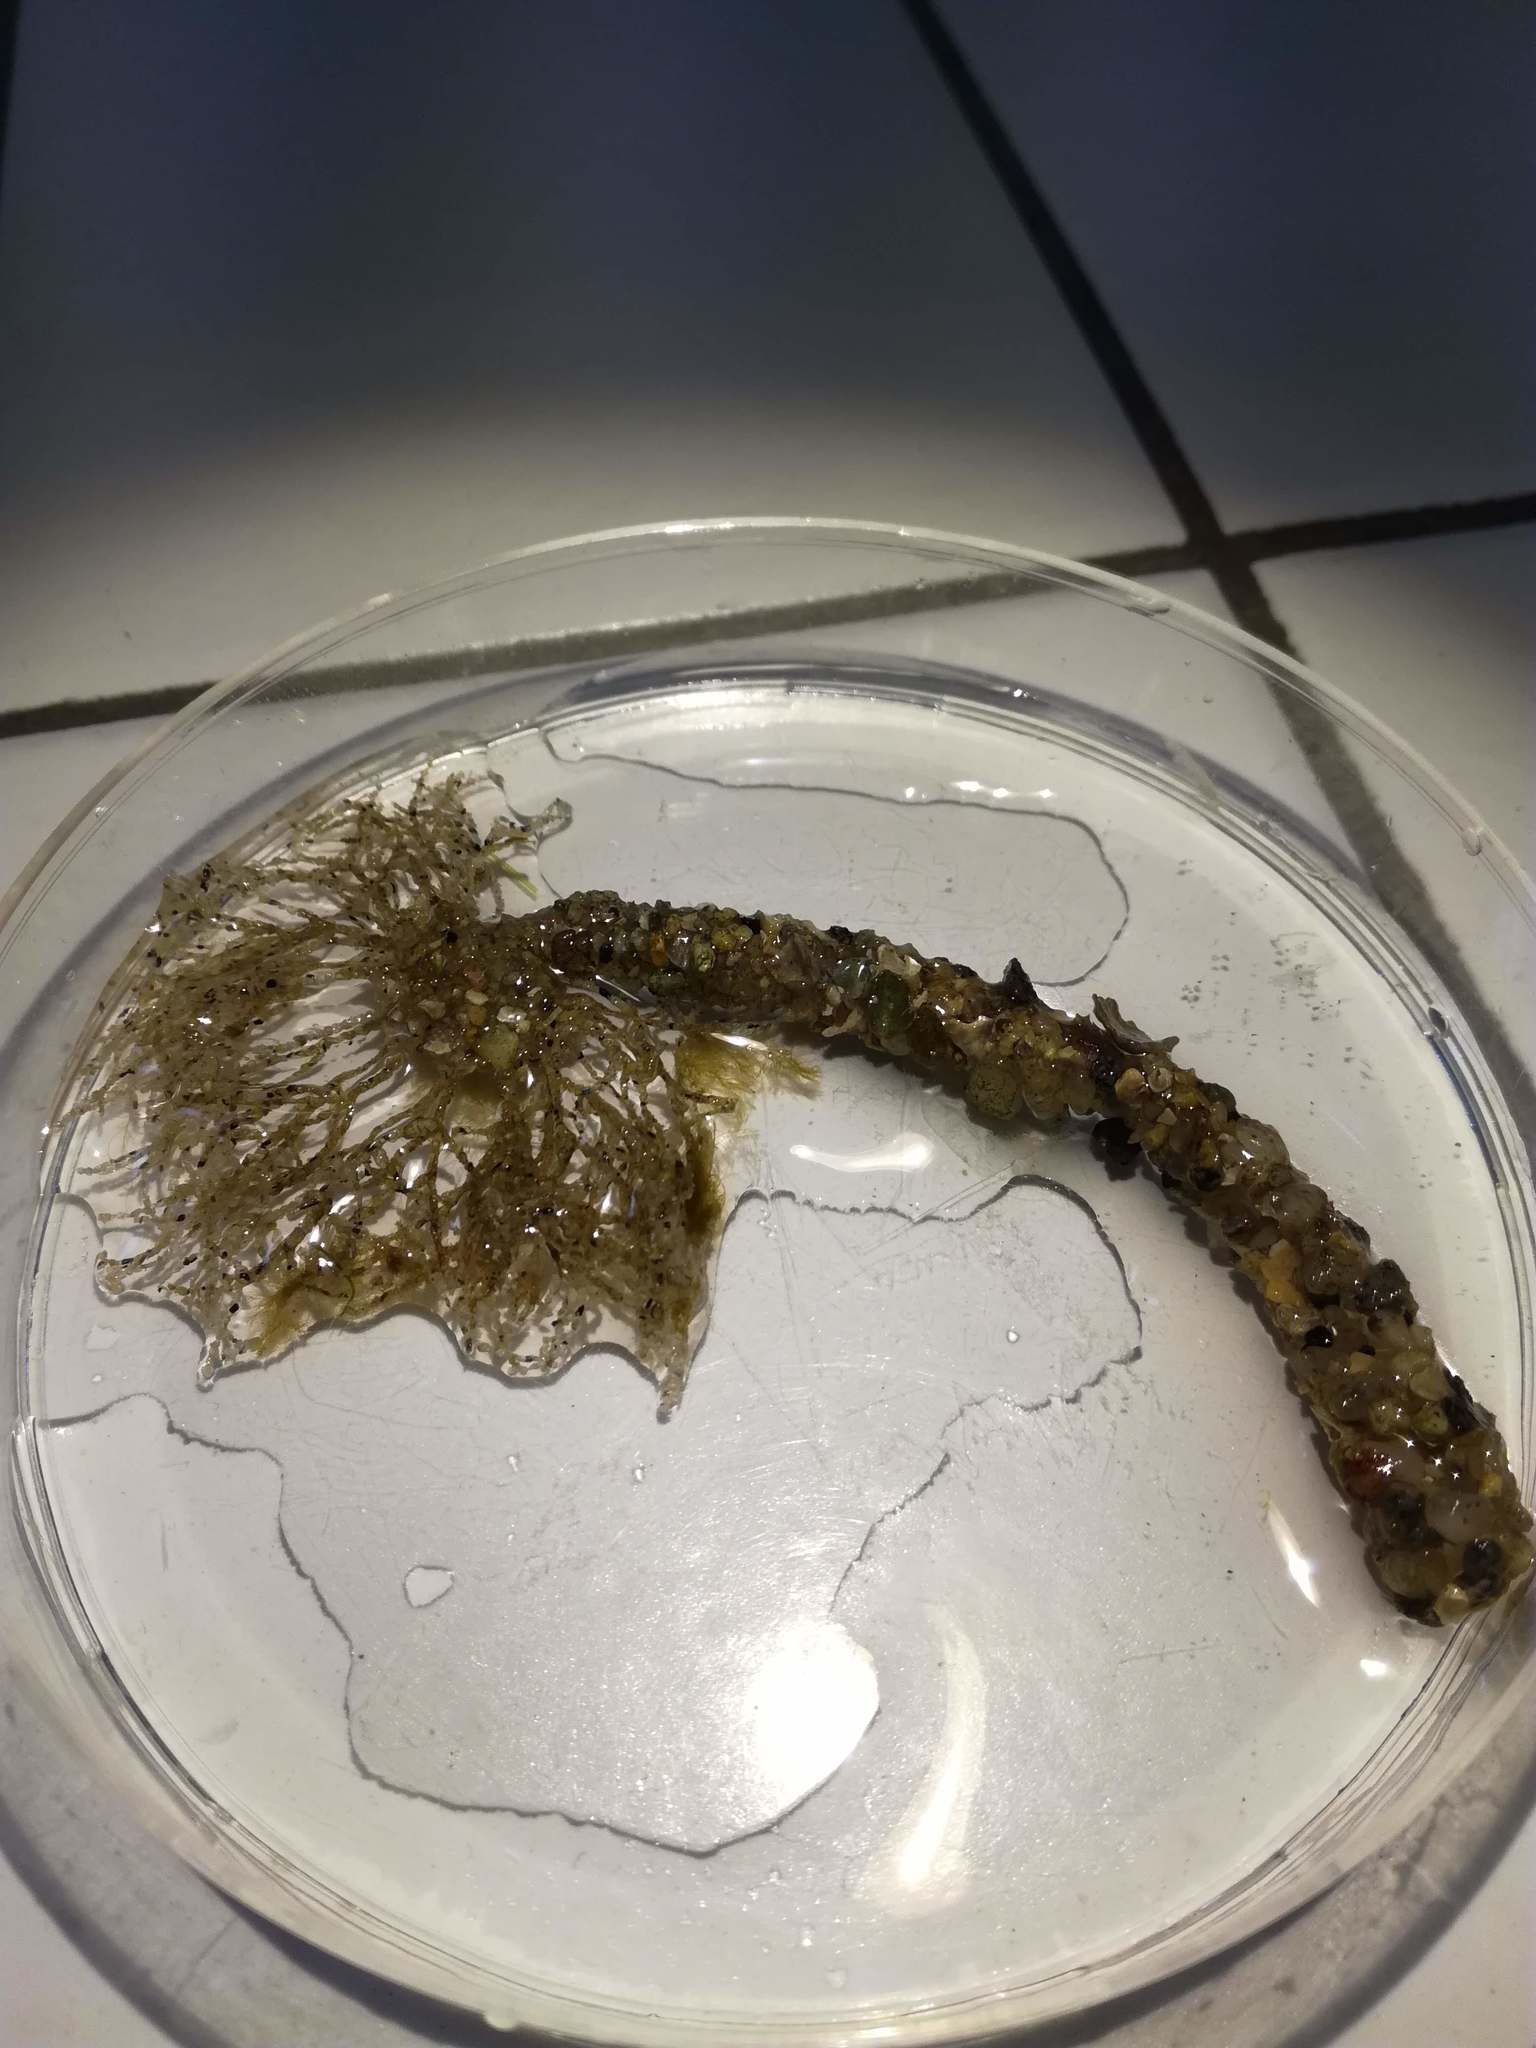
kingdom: Animalia
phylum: Annelida
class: Polychaeta
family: Terebellidae
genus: Lanice
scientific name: Lanice conchilega
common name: Sand mason
